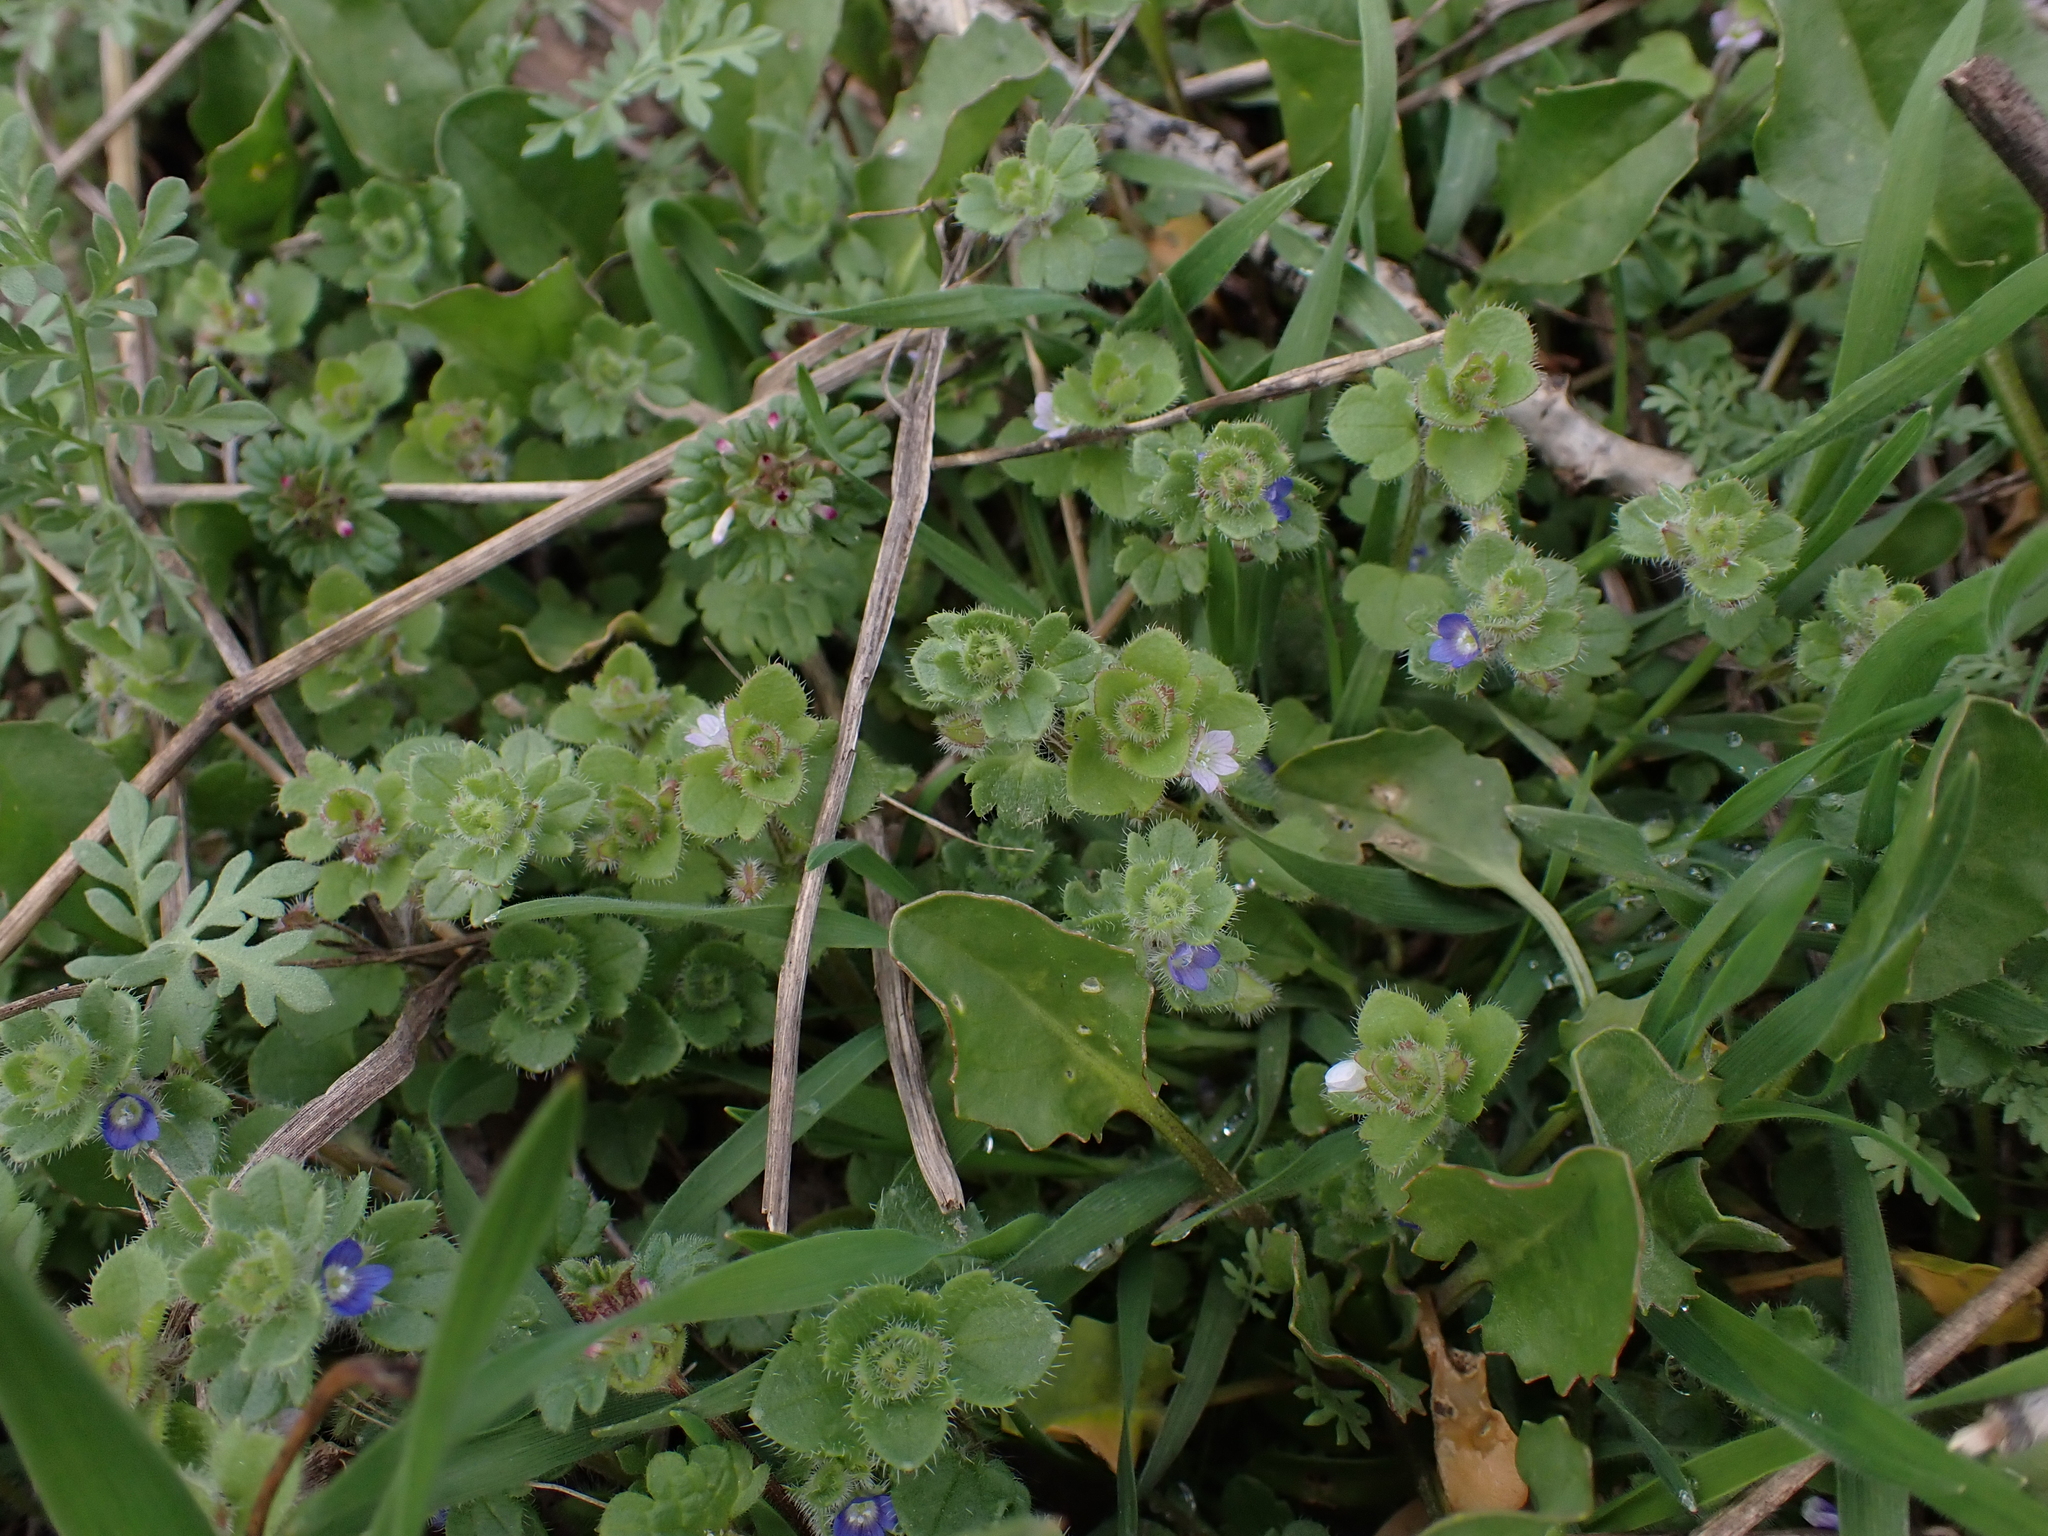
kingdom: Plantae
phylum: Tracheophyta
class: Magnoliopsida
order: Lamiales
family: Plantaginaceae
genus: Veronica
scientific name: Veronica sublobata
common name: False ivy-leaved speedwell
